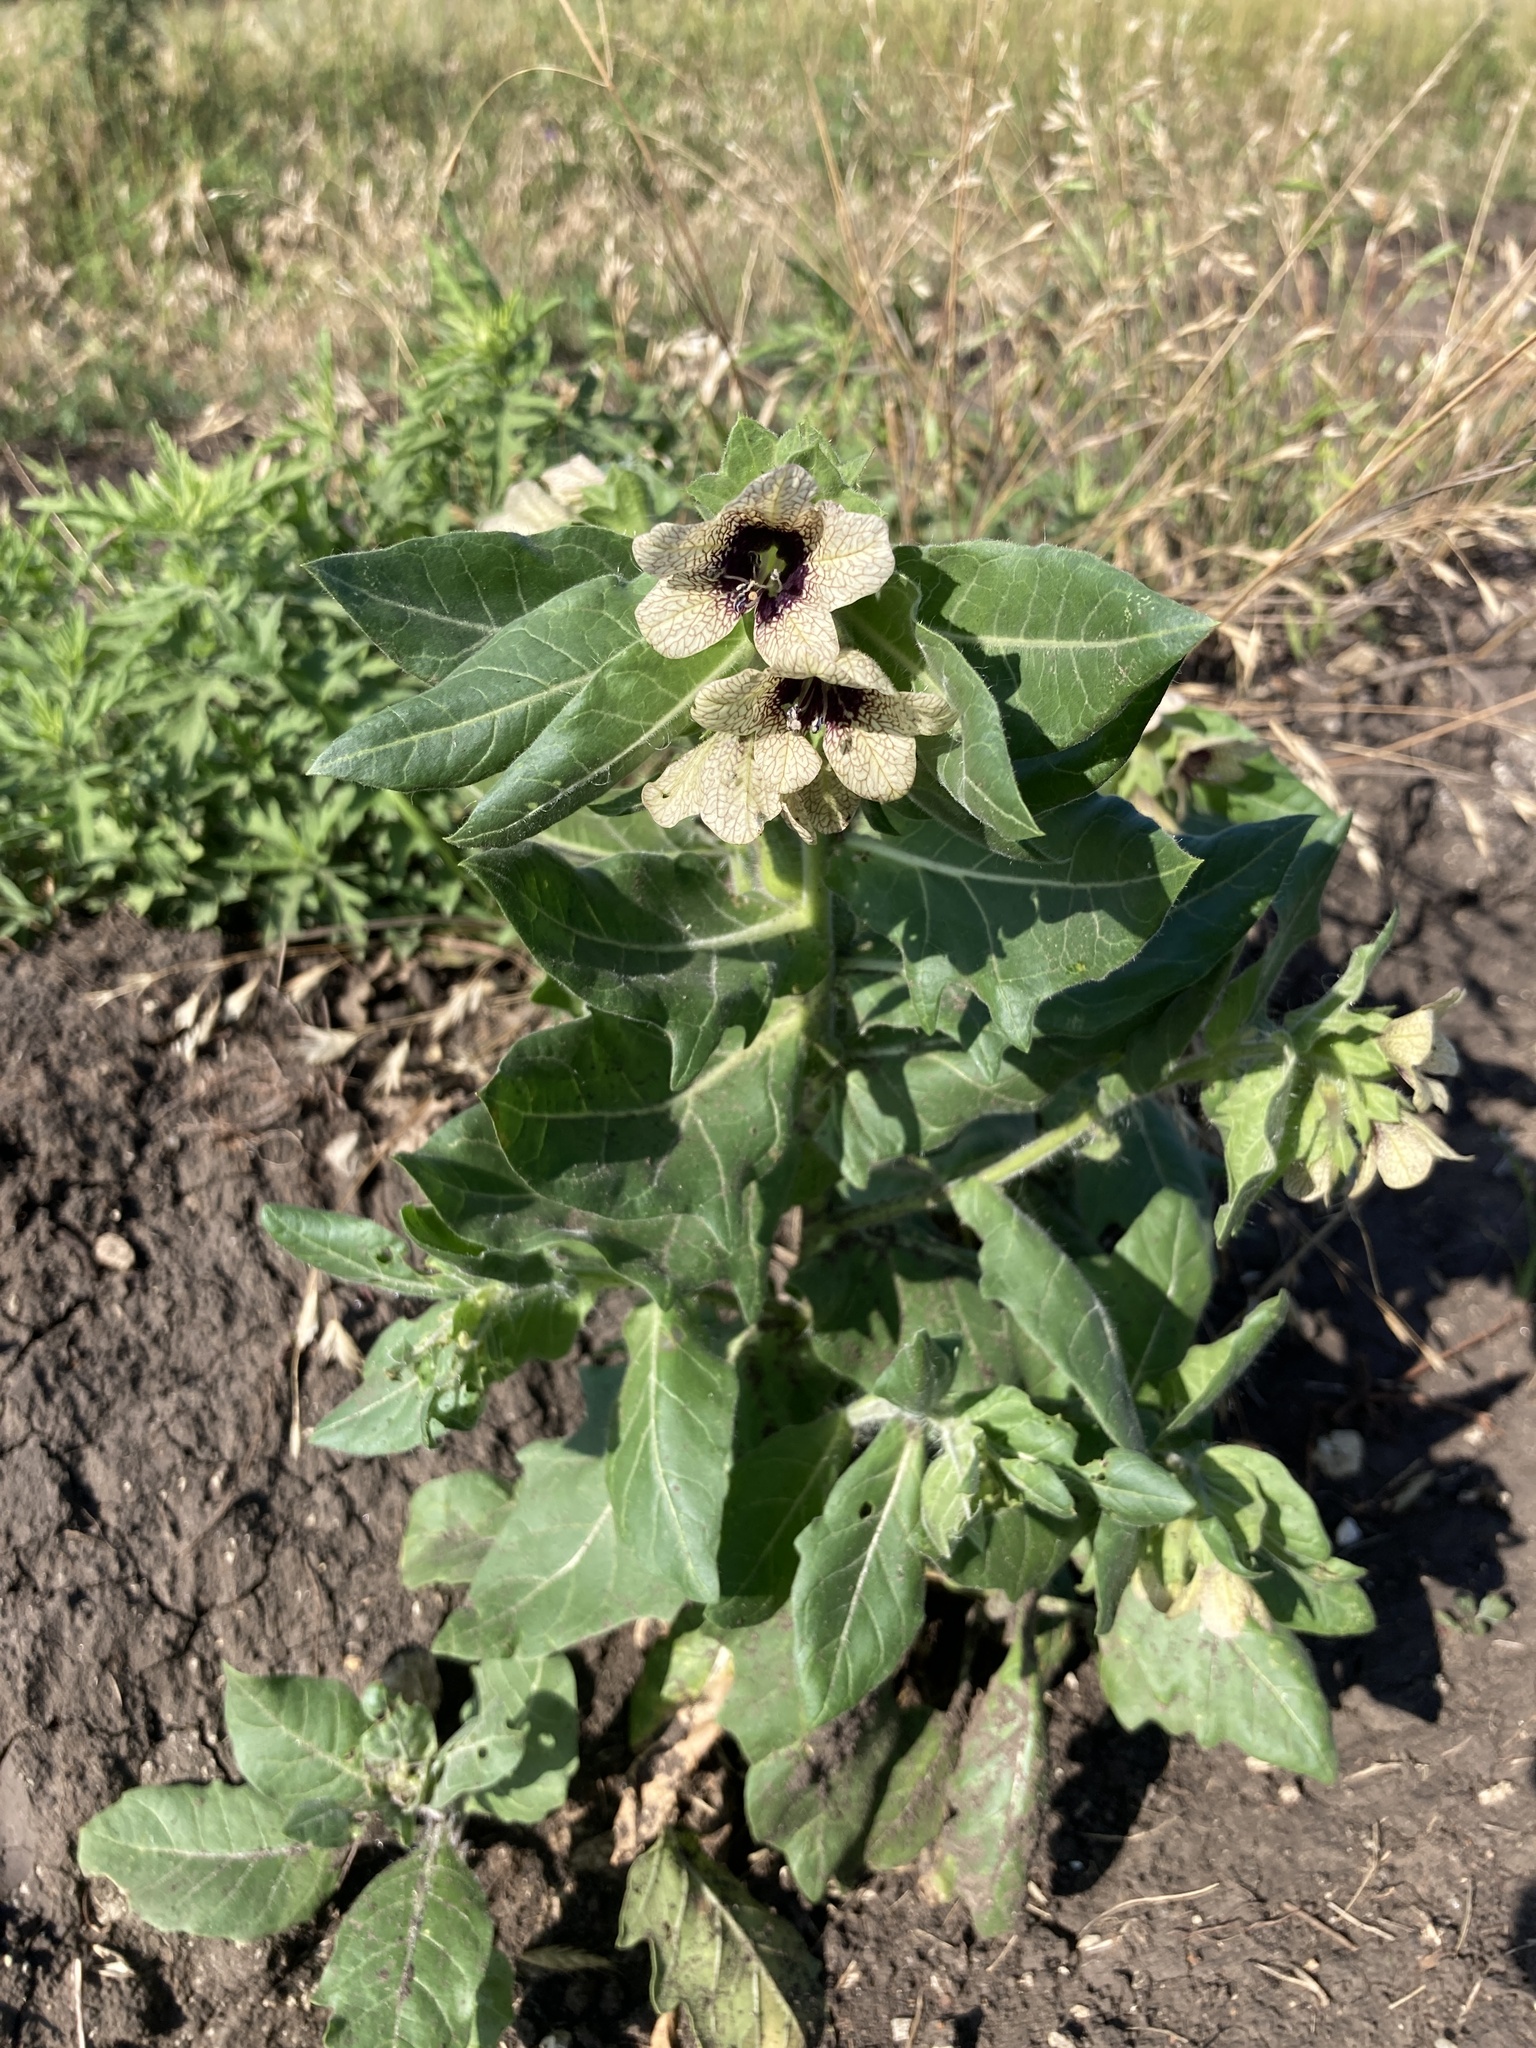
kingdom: Plantae
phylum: Tracheophyta
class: Magnoliopsida
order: Solanales
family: Solanaceae
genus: Hyoscyamus
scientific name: Hyoscyamus niger
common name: Henbane
